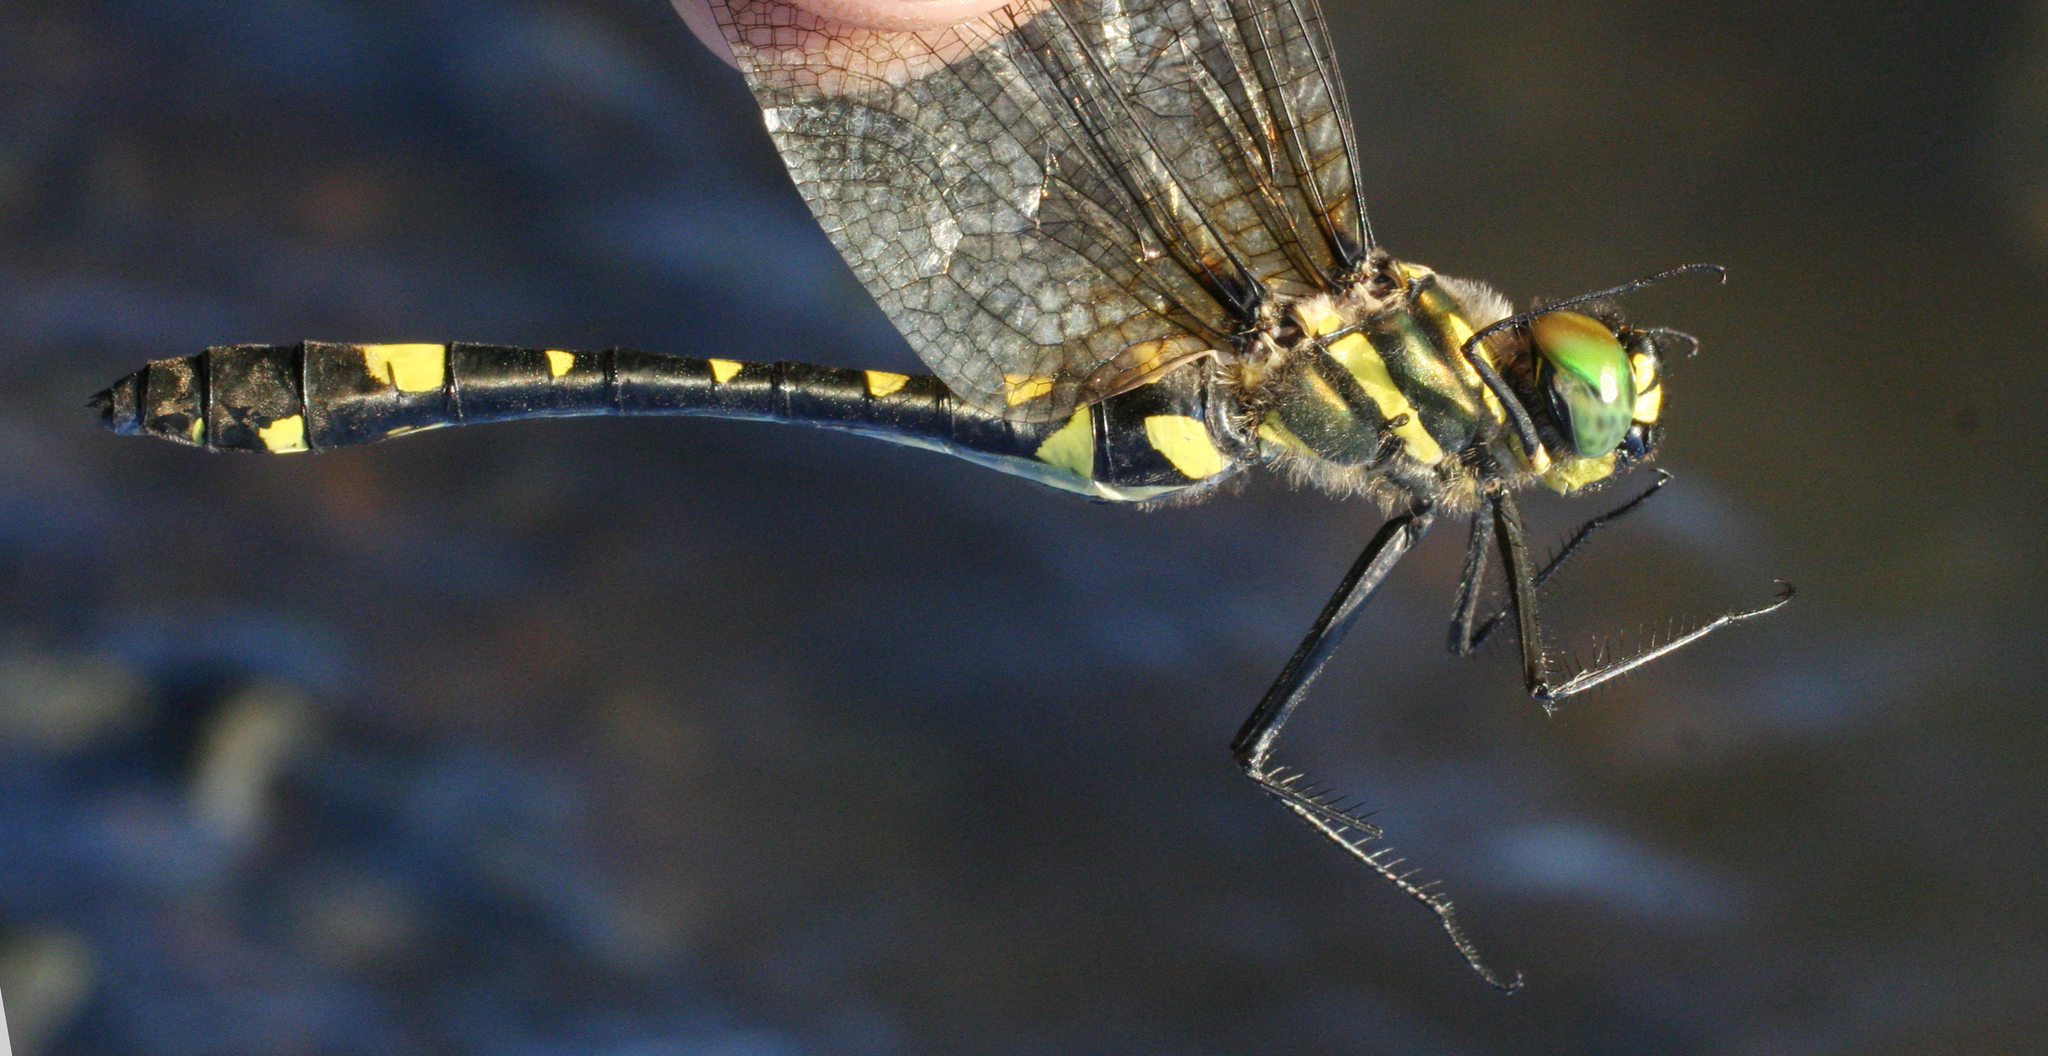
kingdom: Animalia
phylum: Arthropoda
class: Insecta
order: Odonata
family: Macromiidae
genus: Macromia
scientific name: Macromia daimoji
